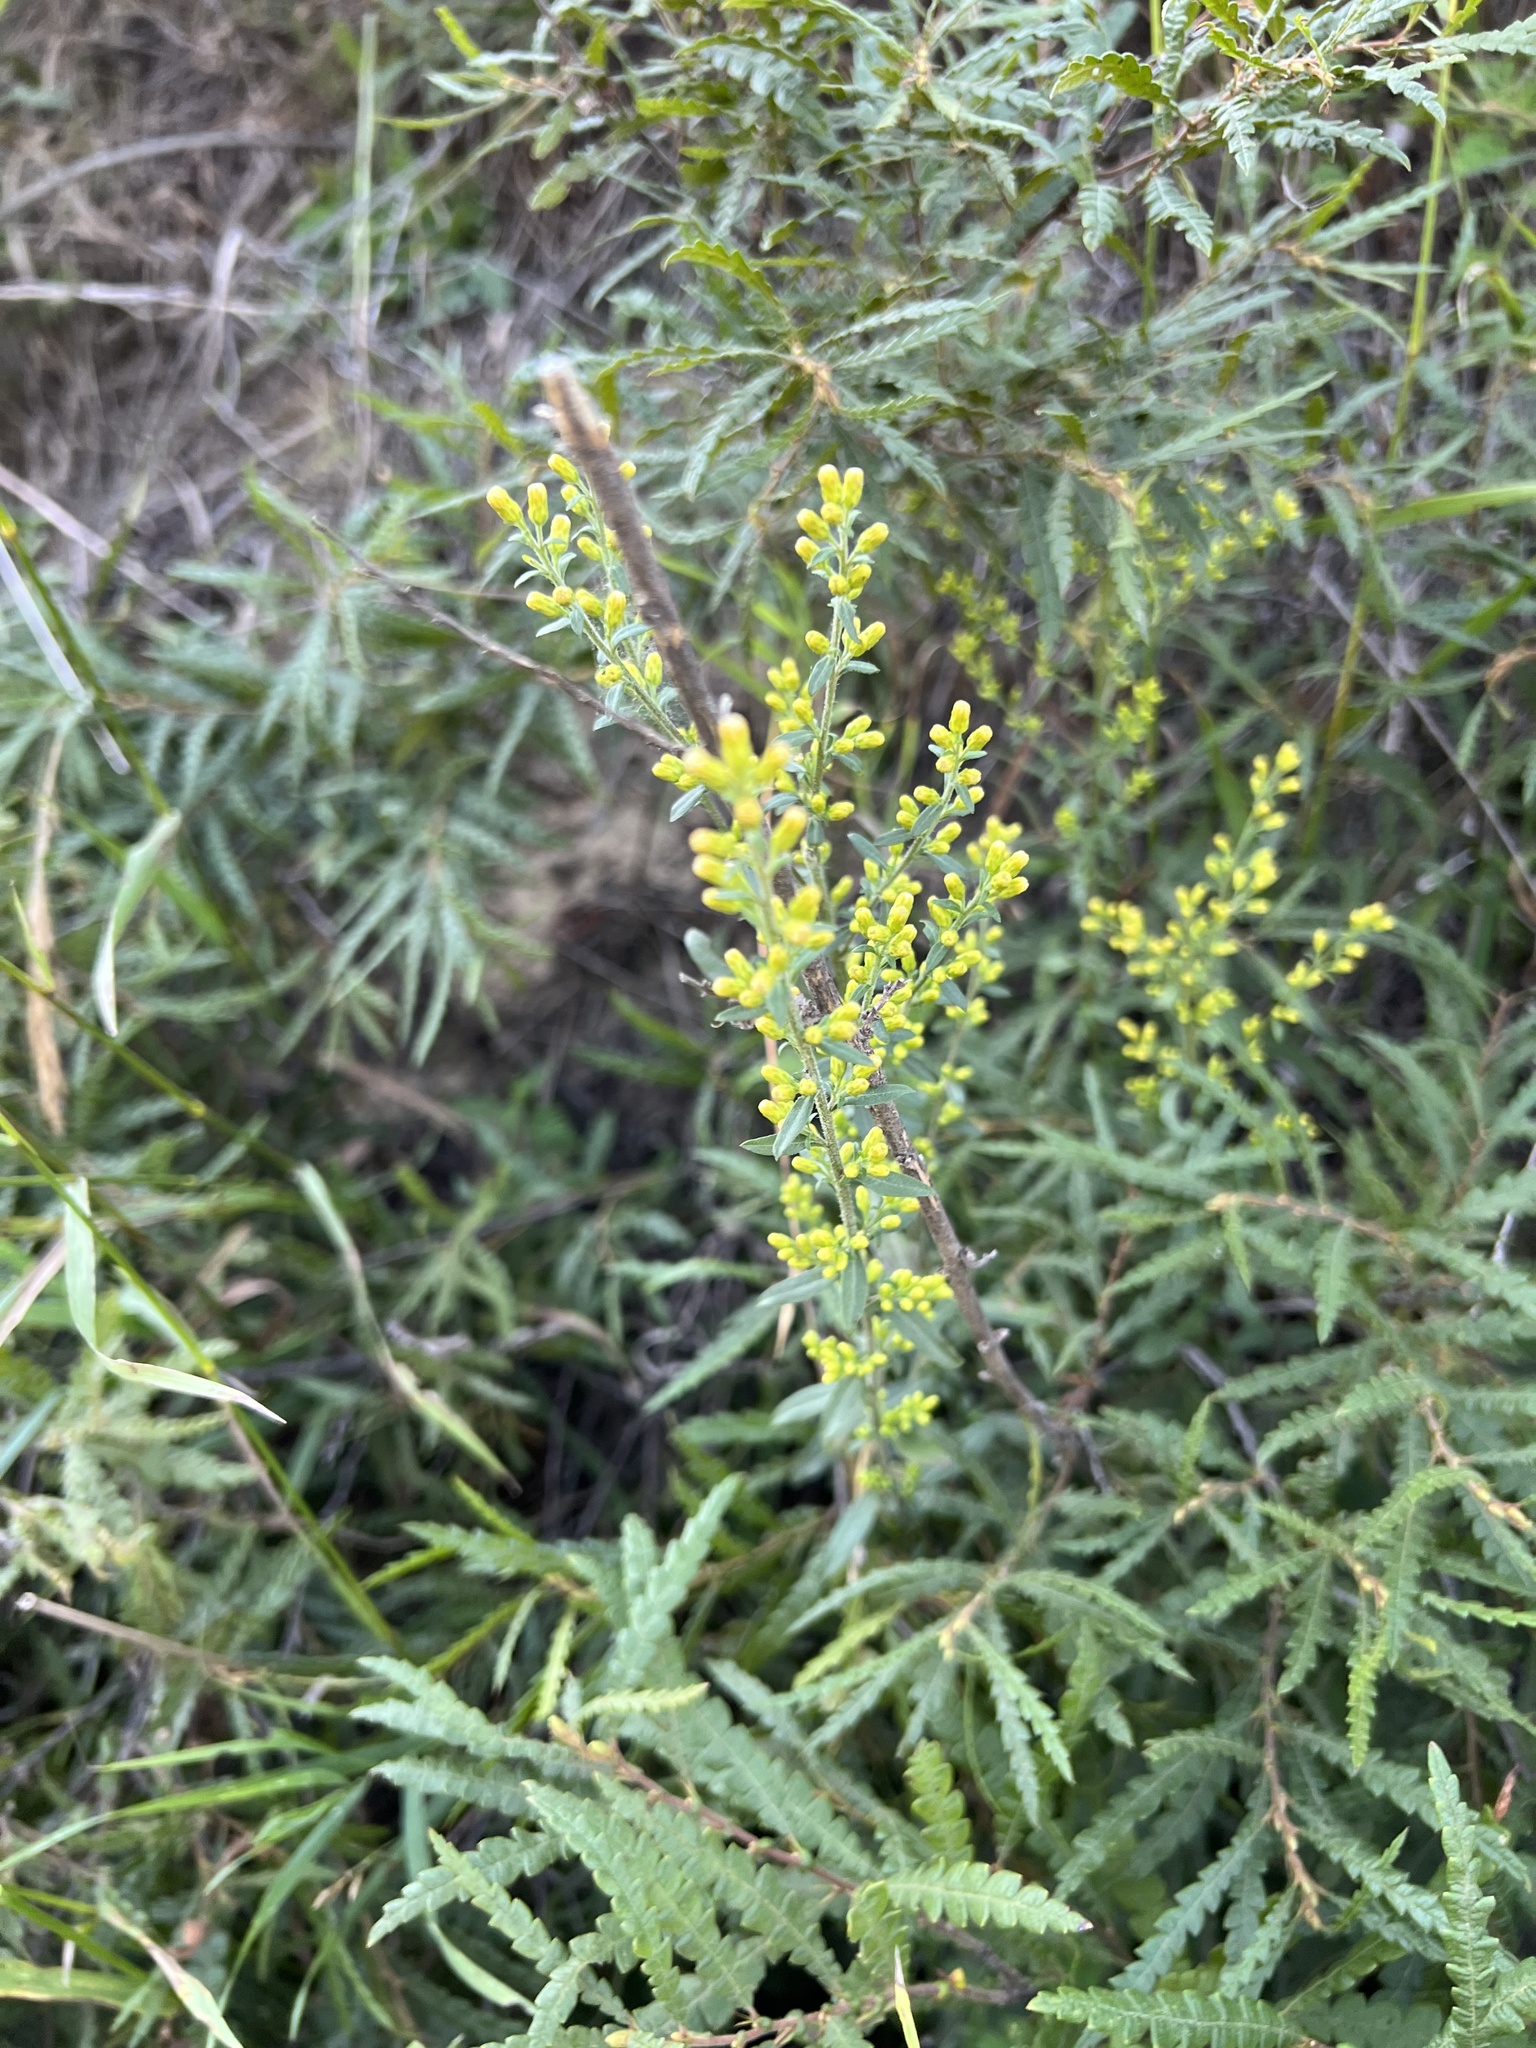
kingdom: Plantae
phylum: Tracheophyta
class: Magnoliopsida
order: Asterales
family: Asteraceae
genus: Solidago
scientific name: Solidago nemoralis
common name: Grey goldenrod
